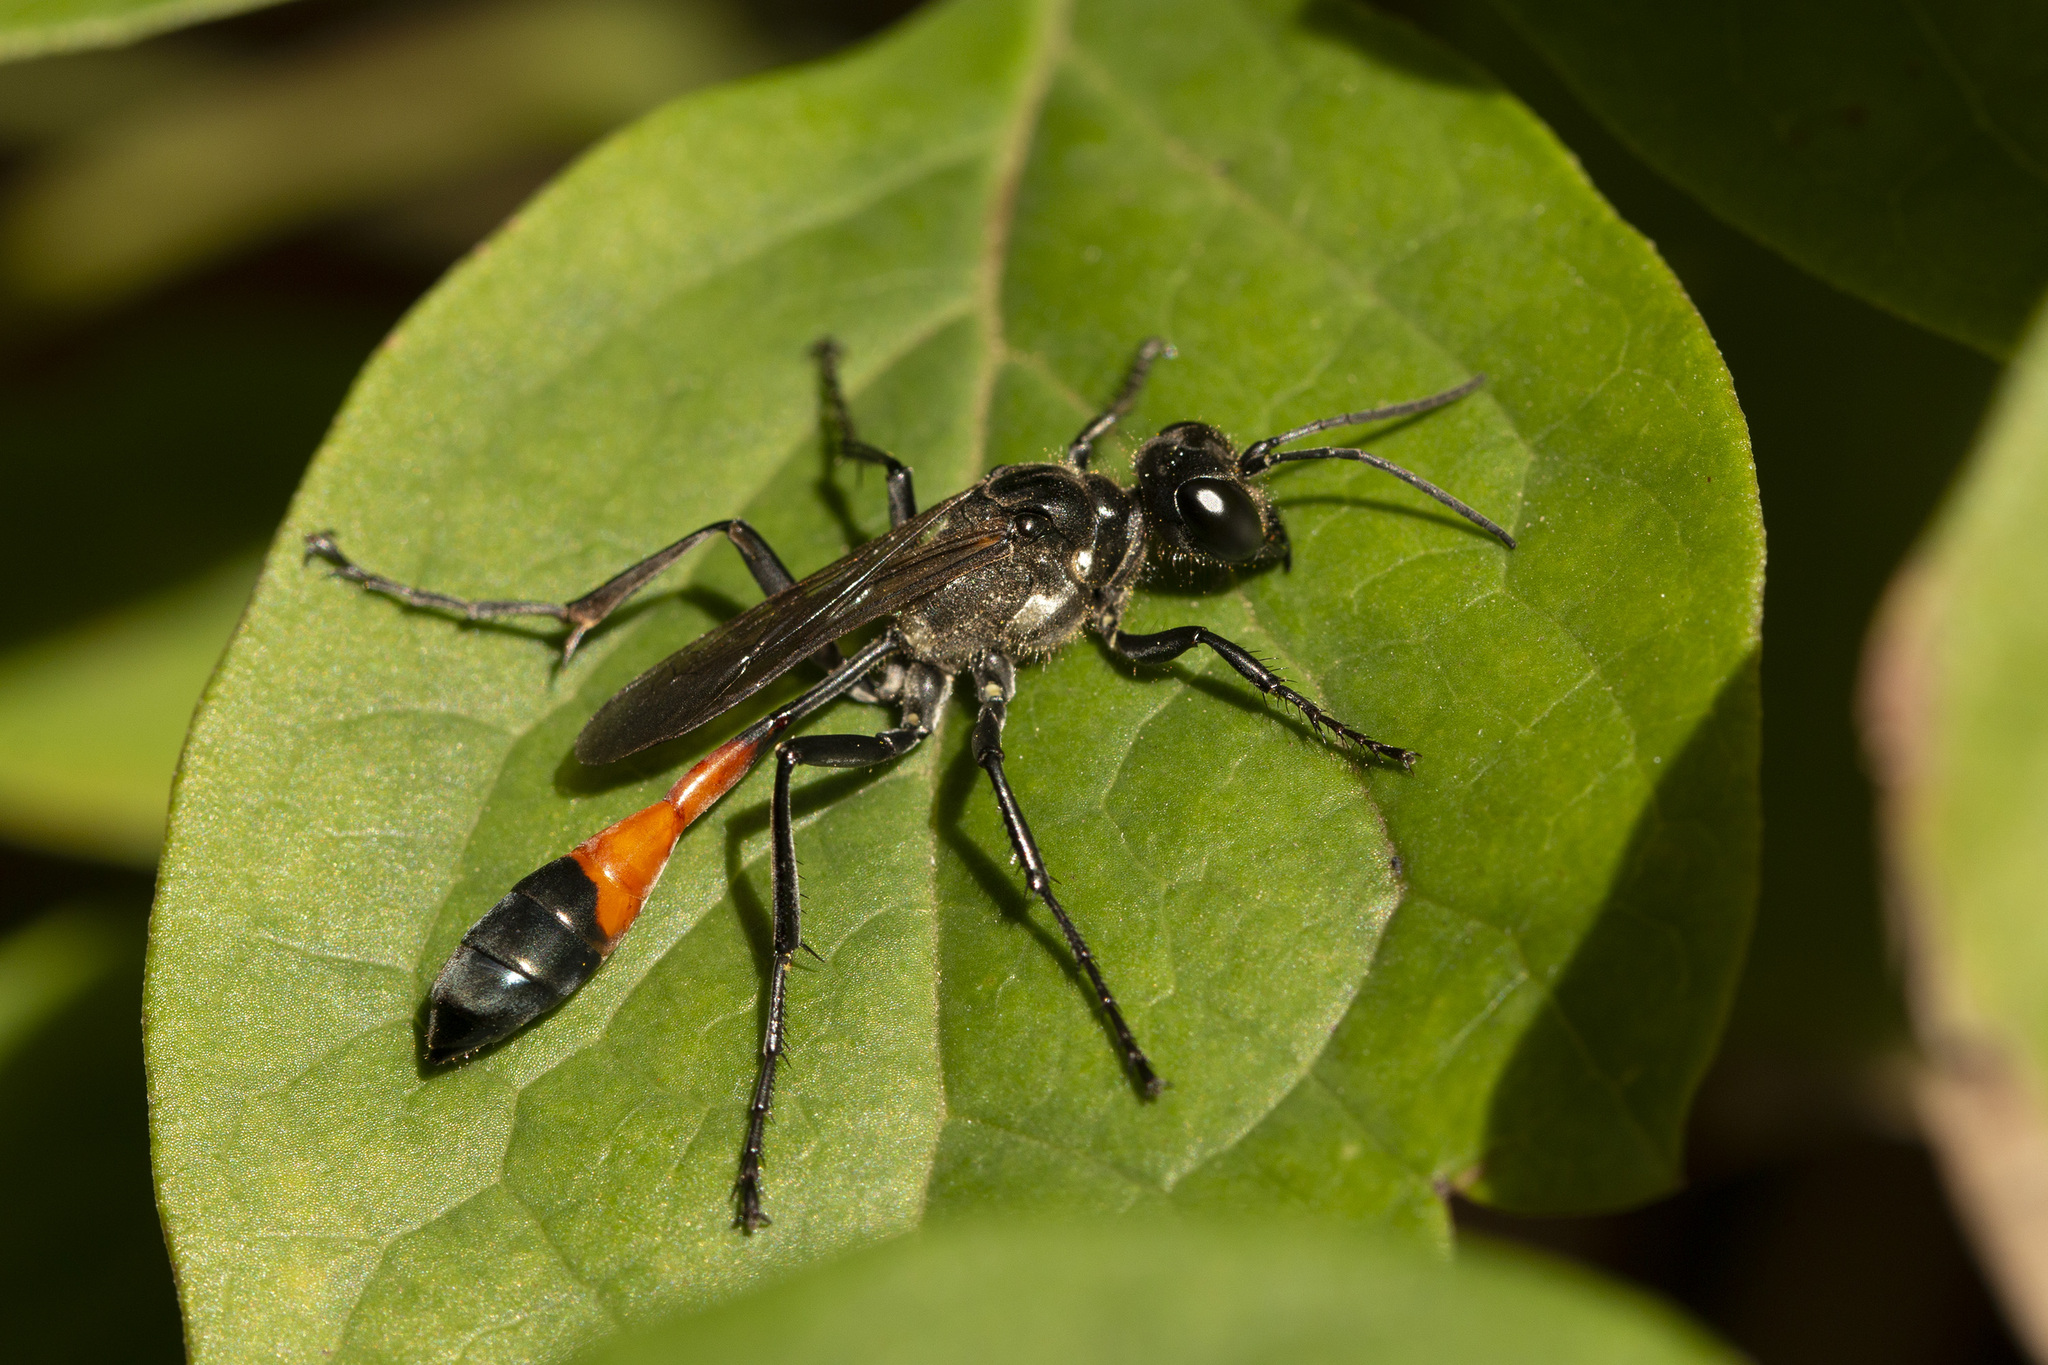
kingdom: Animalia
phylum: Arthropoda
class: Insecta
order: Hymenoptera
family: Sphecidae
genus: Ammophila
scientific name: Ammophila sabulosa
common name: Red banded sand wasp
